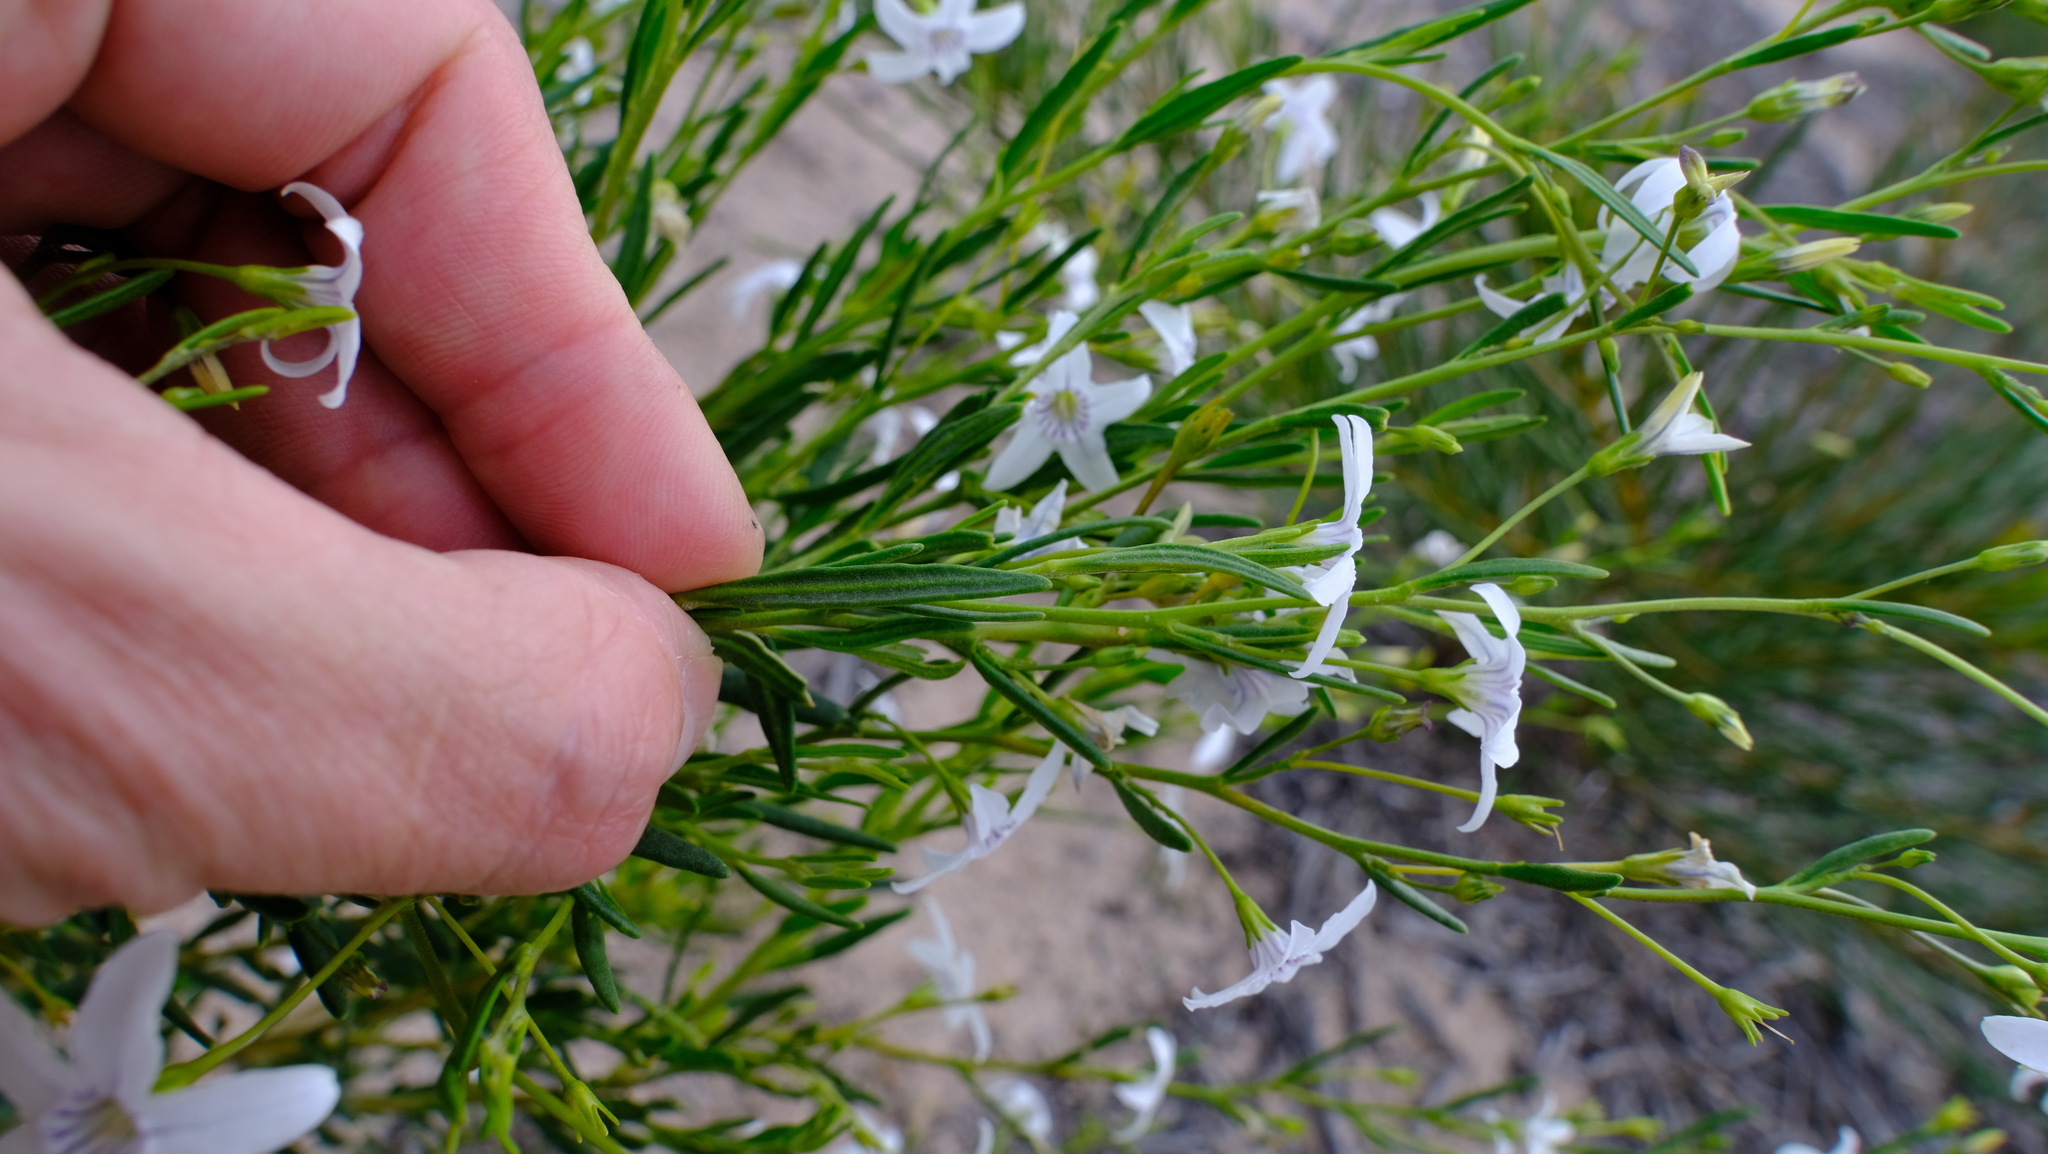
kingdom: Plantae
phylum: Tracheophyta
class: Magnoliopsida
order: Solanales
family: Solanaceae
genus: Cyphanthera
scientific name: Cyphanthera racemosa
